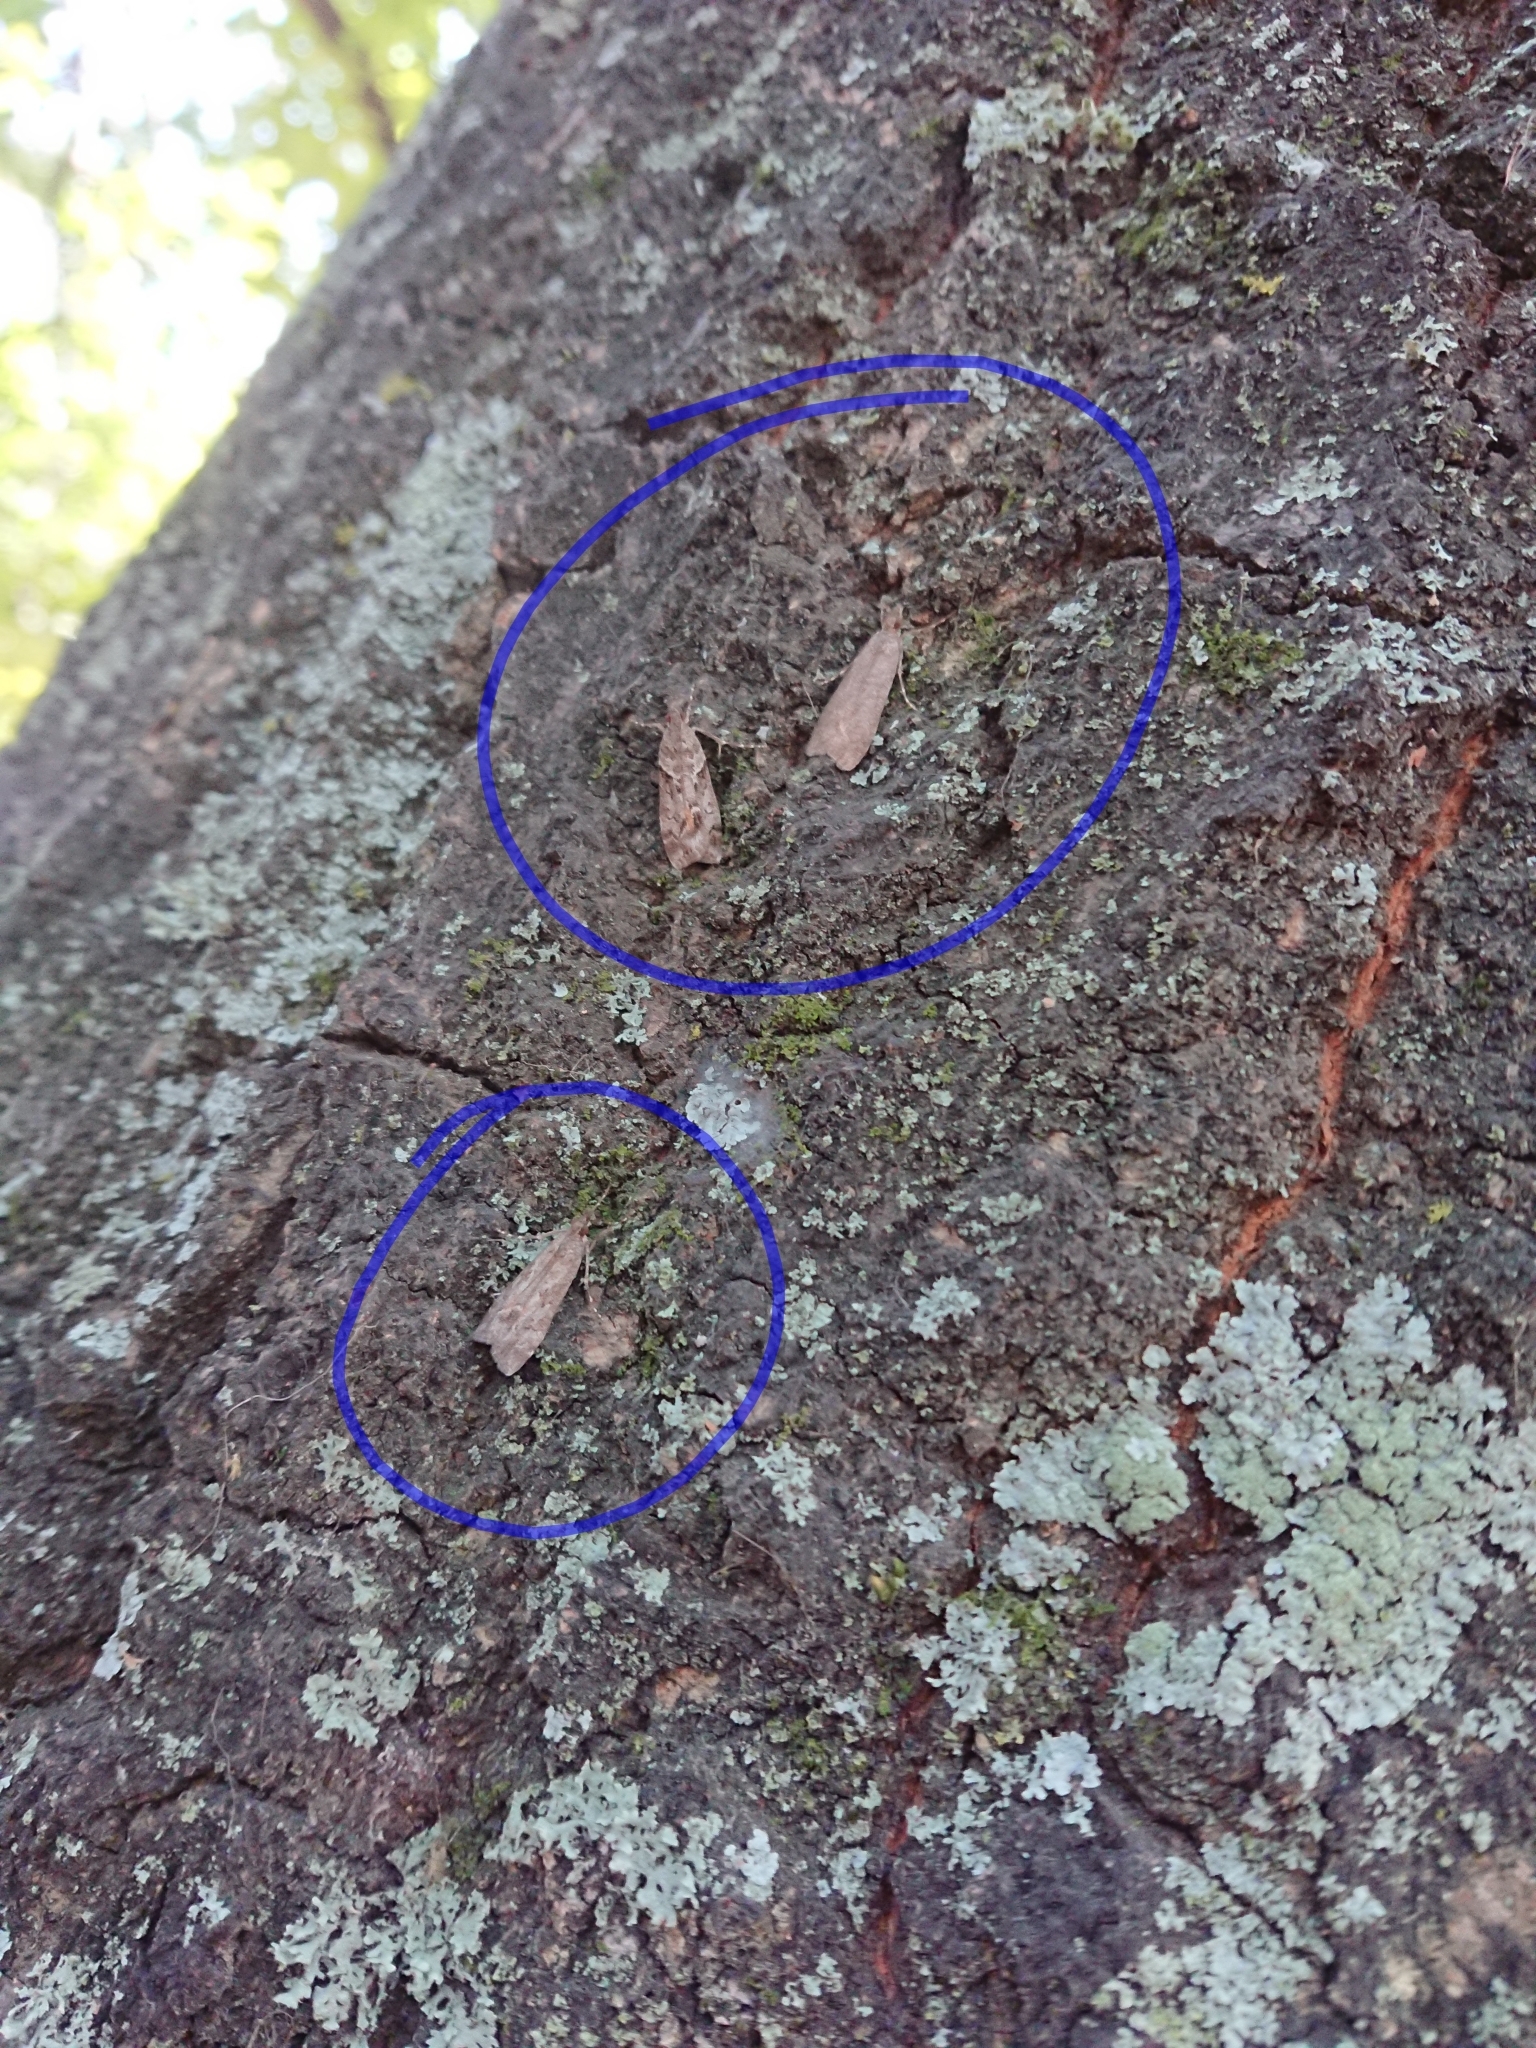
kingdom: Animalia
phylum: Arthropoda
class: Insecta
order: Lepidoptera
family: Crambidae
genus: Eudonia
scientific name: Eudonia submarginalis
